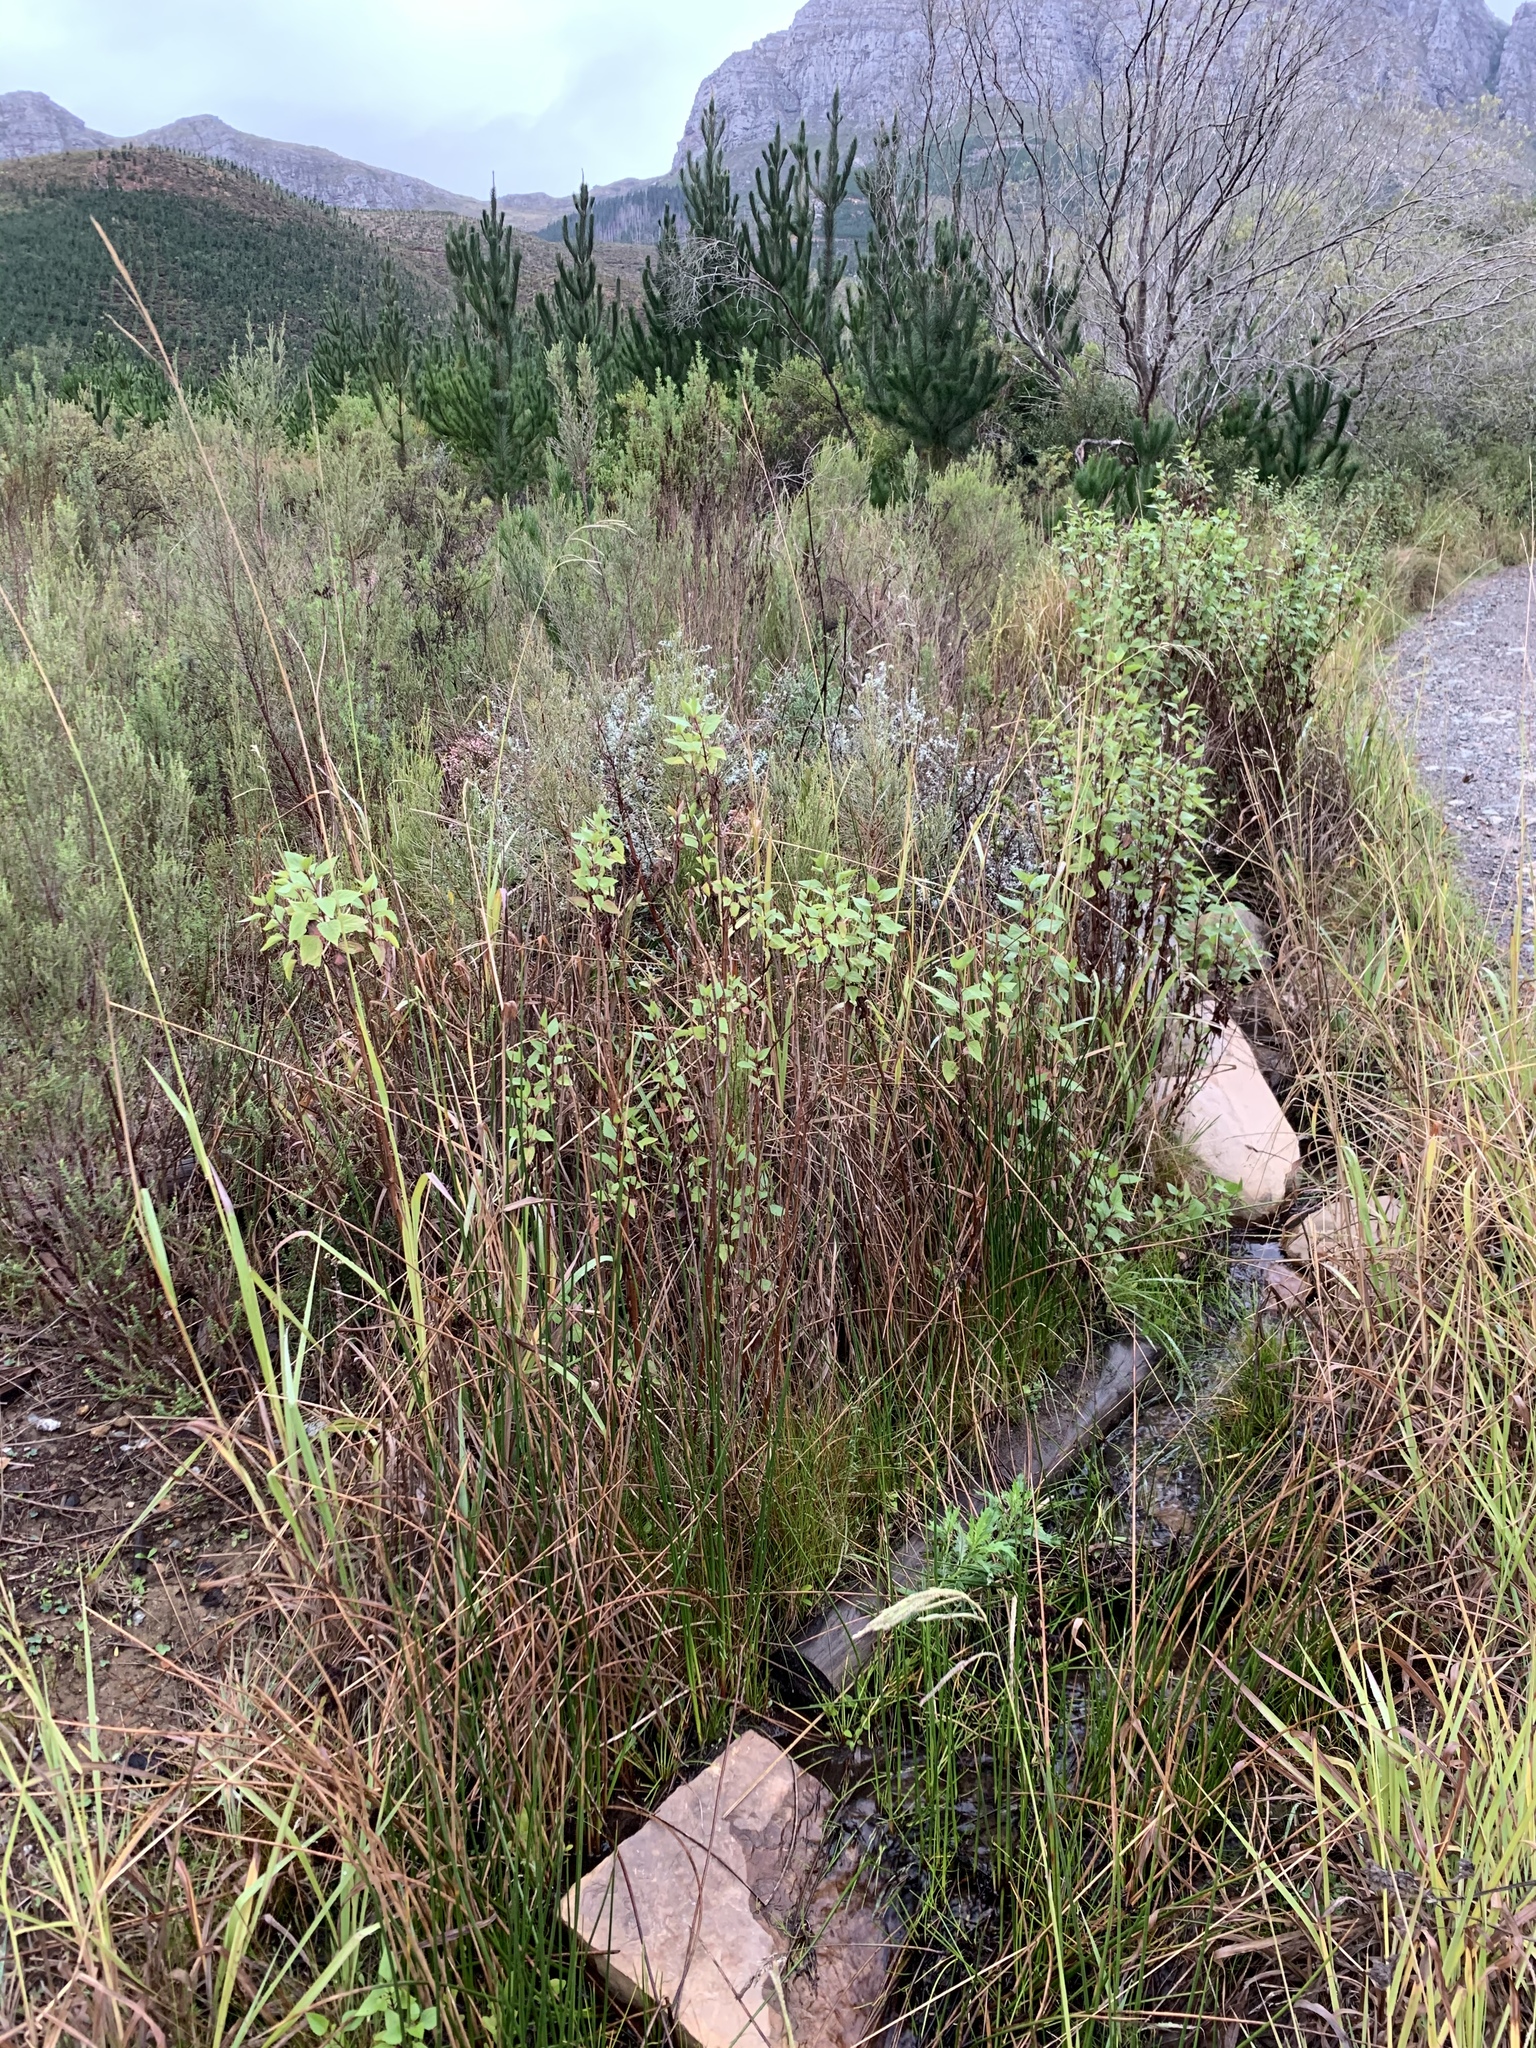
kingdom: Plantae
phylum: Tracheophyta
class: Magnoliopsida
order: Asterales
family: Asteraceae
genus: Ageratina
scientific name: Ageratina adenophora
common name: Sticky snakeroot
